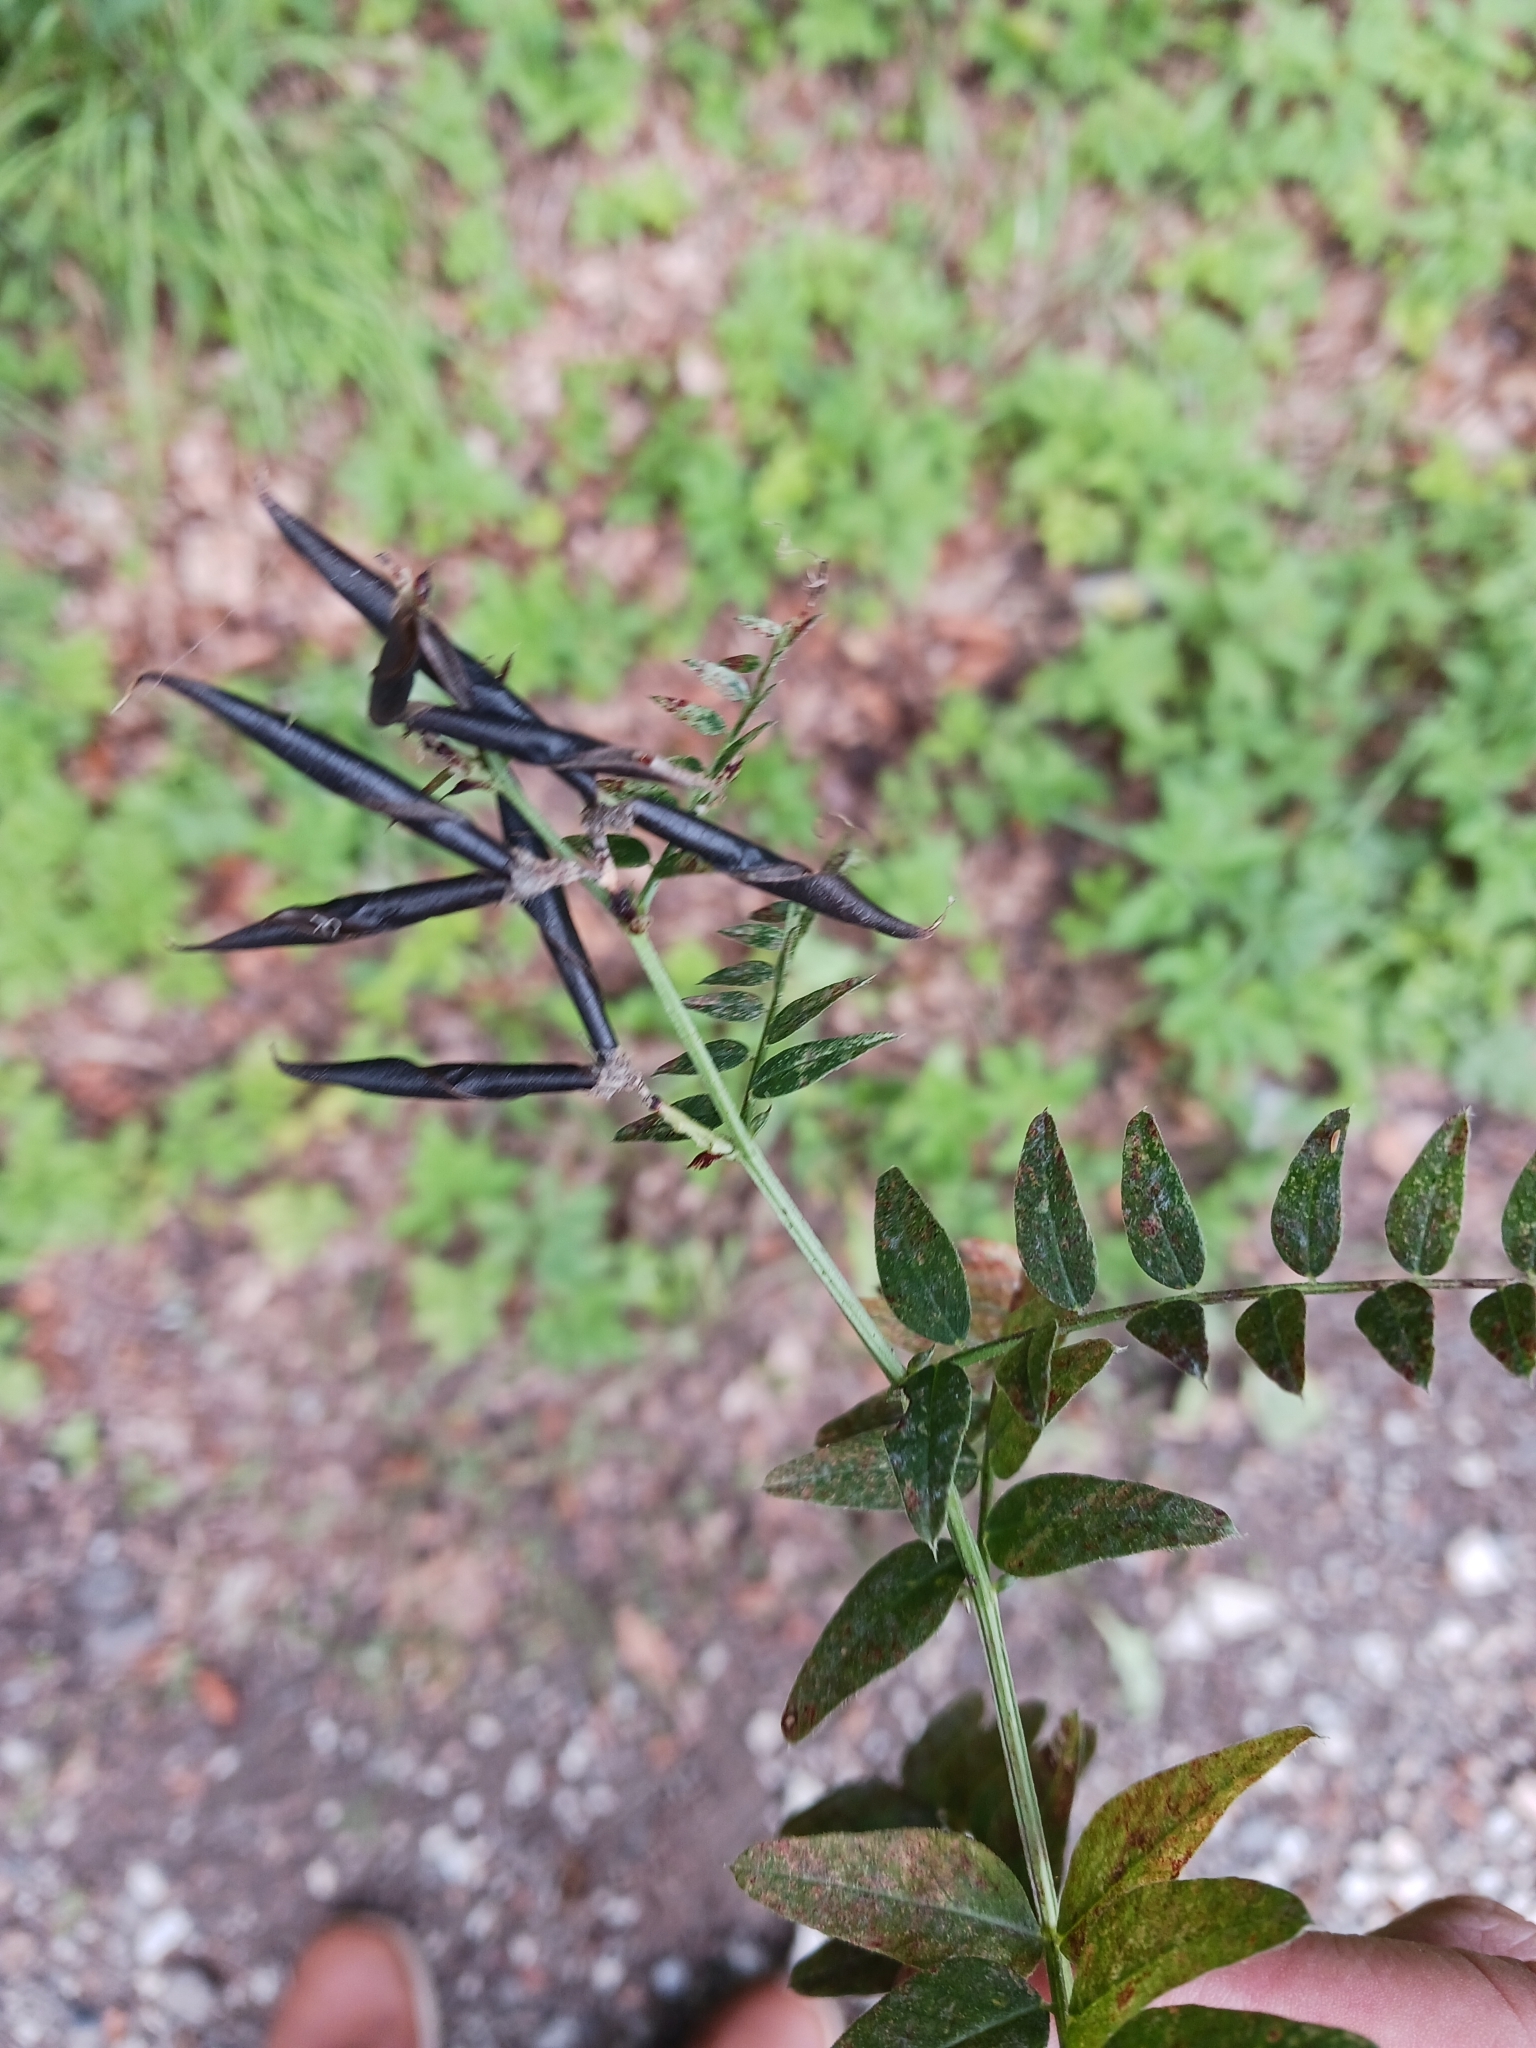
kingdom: Plantae
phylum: Tracheophyta
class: Magnoliopsida
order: Fabales
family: Fabaceae
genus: Vicia
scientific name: Vicia sepium
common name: Bush vetch
